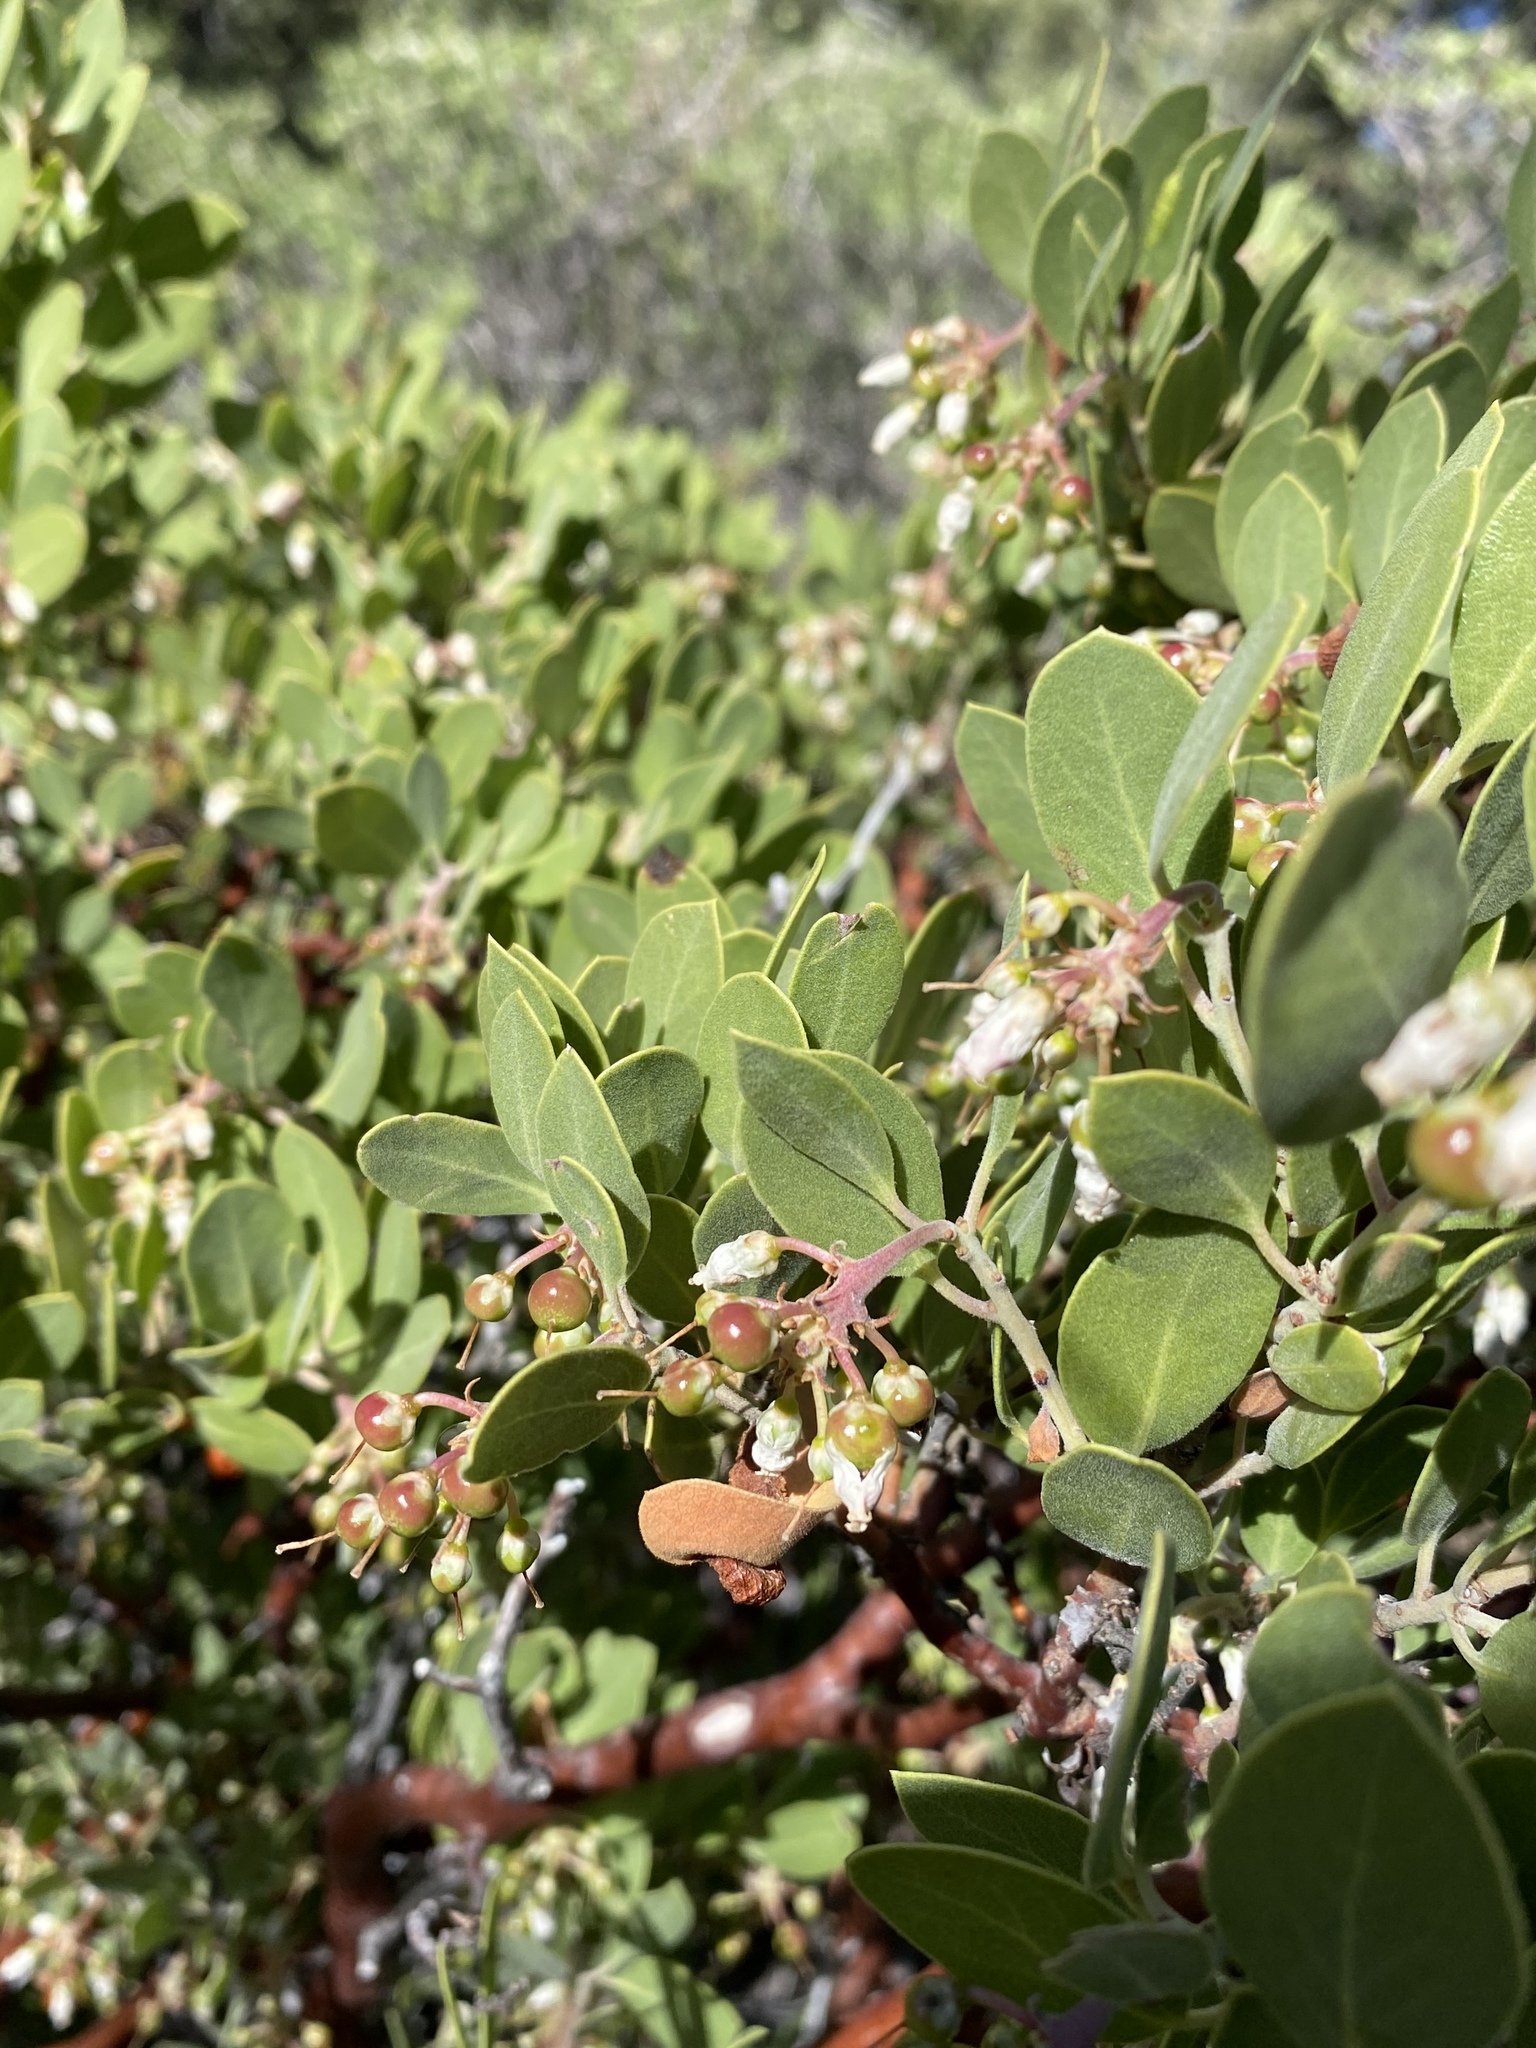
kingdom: Plantae
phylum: Tracheophyta
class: Magnoliopsida
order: Ericales
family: Ericaceae
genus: Arctostaphylos
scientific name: Arctostaphylos pungens
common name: Mexican manzanita
